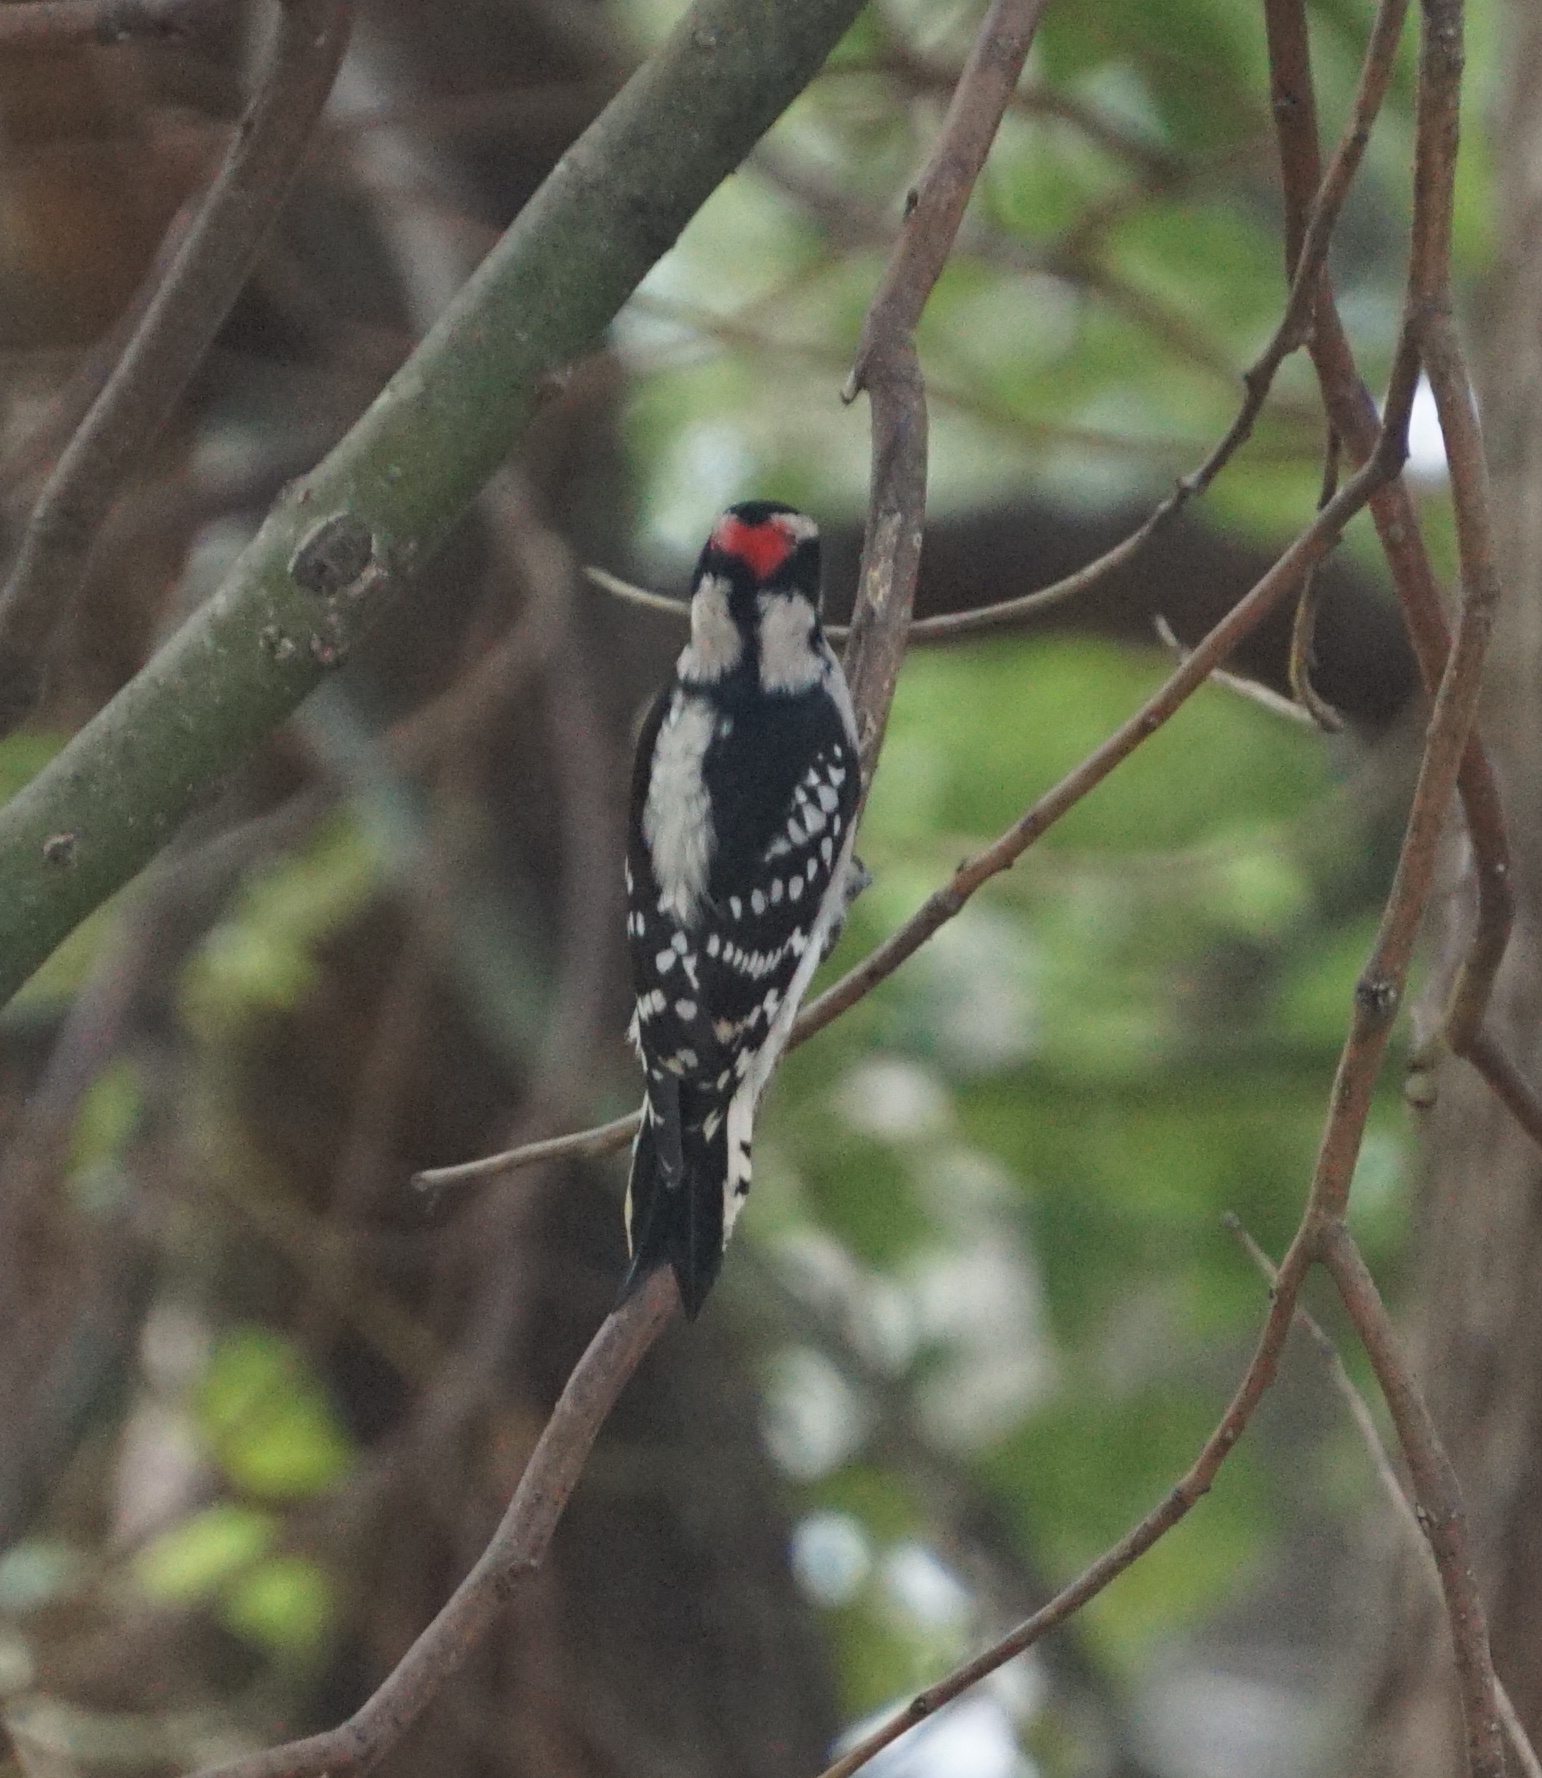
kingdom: Animalia
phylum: Chordata
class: Aves
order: Piciformes
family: Picidae
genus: Dryobates
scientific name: Dryobates pubescens
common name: Downy woodpecker
